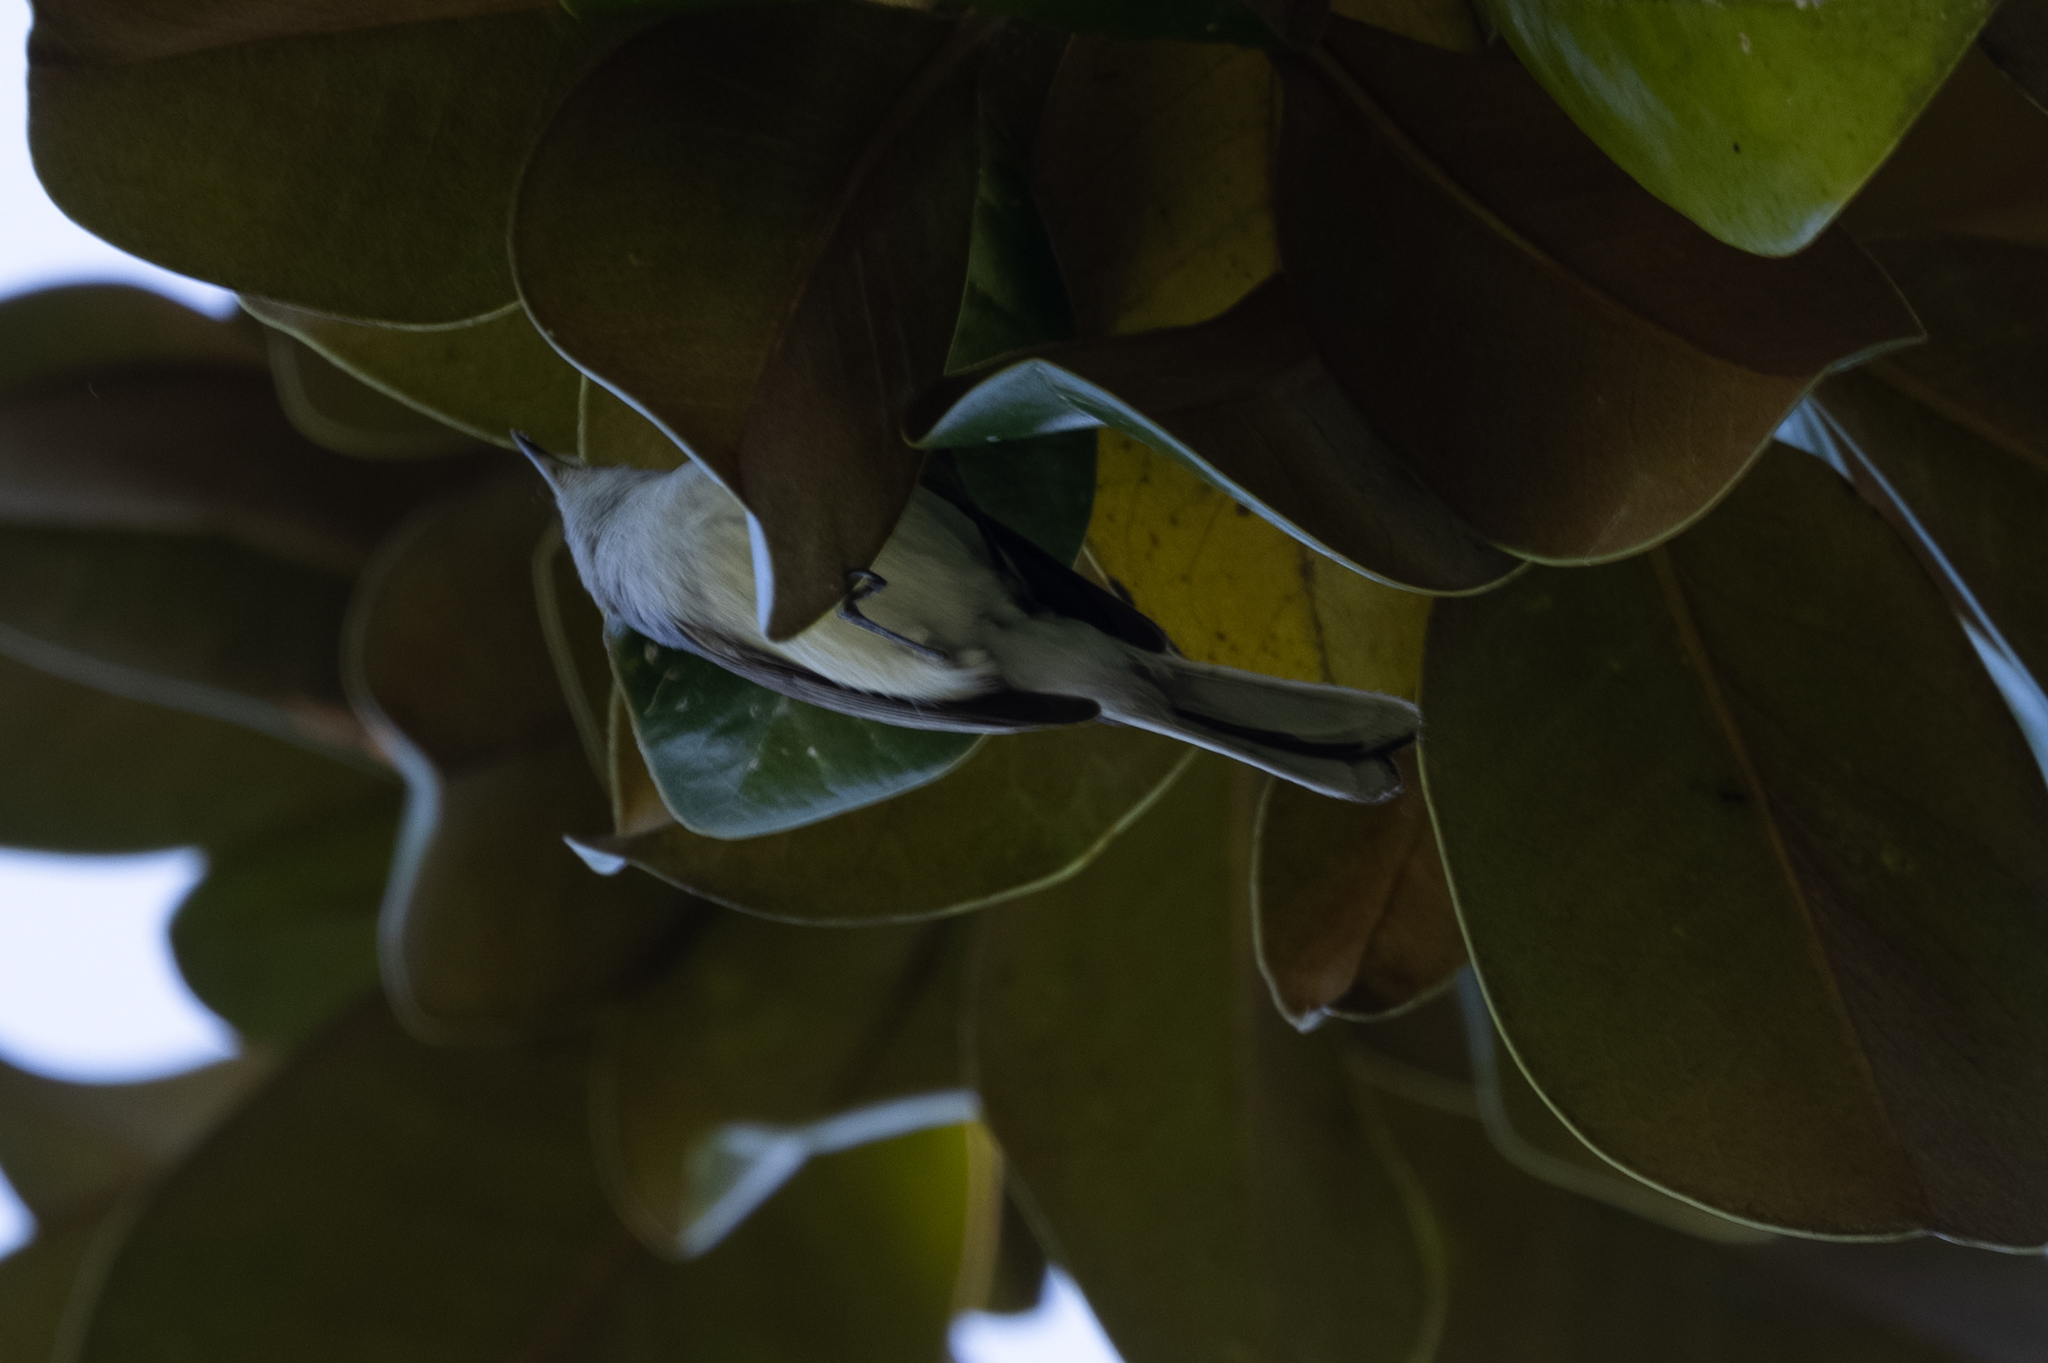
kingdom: Animalia
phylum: Chordata
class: Aves
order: Passeriformes
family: Polioptilidae
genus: Polioptila
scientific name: Polioptila caerulea
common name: Blue-gray gnatcatcher
